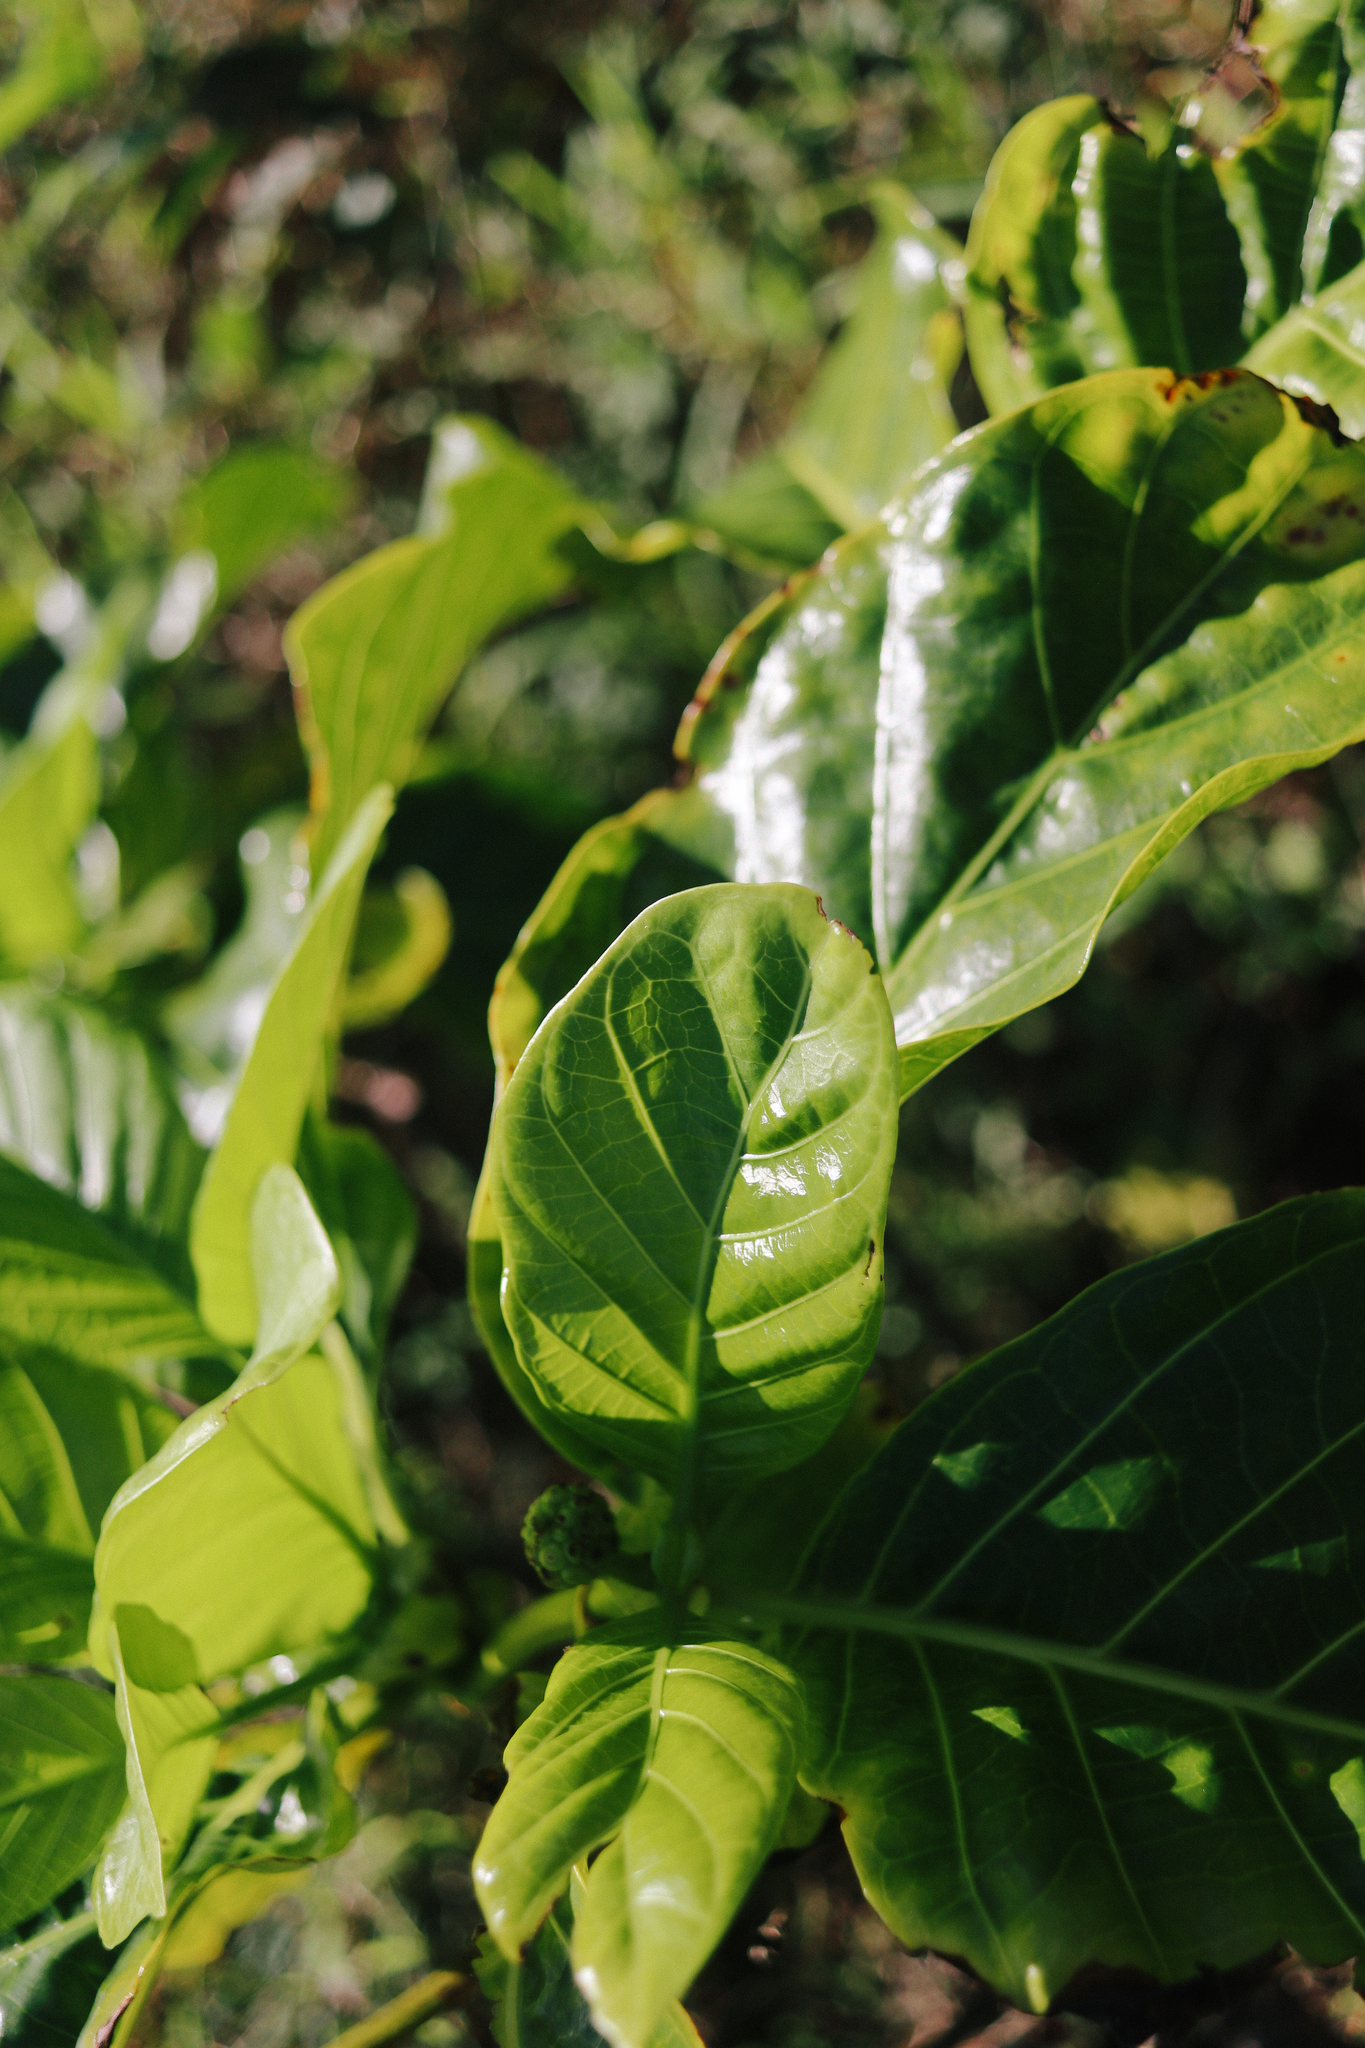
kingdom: Plantae
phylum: Tracheophyta
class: Magnoliopsida
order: Gentianales
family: Rubiaceae
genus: Morinda
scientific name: Morinda citrifolia
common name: Indian-mulberry
